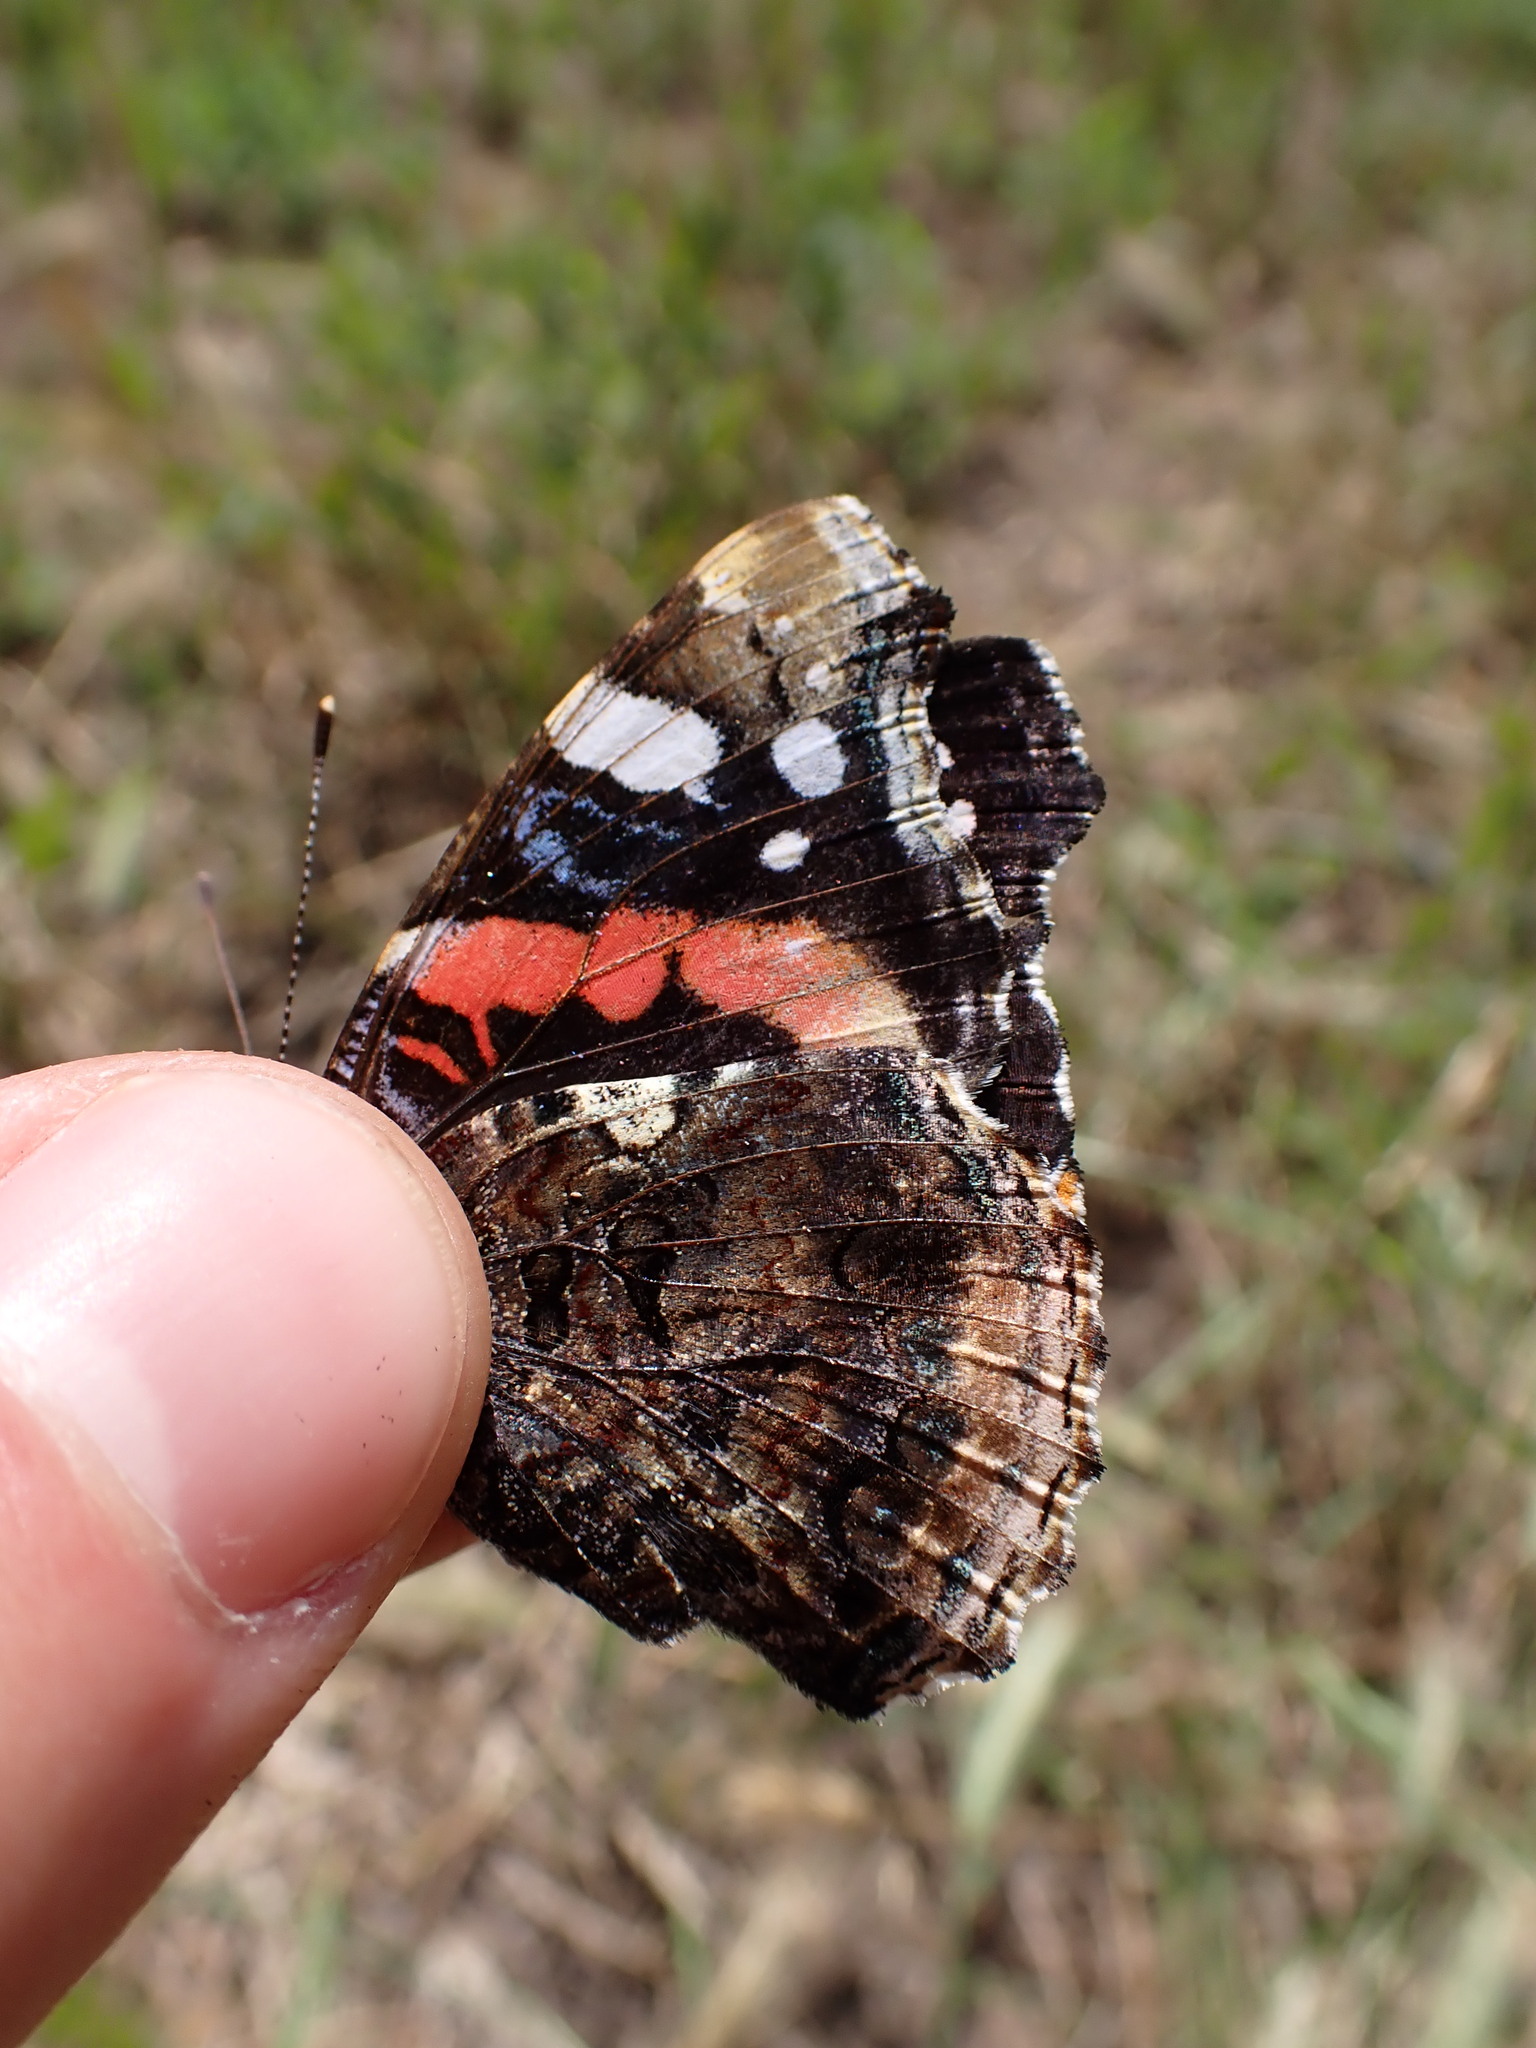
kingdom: Animalia
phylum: Arthropoda
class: Insecta
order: Lepidoptera
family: Nymphalidae
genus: Vanessa
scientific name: Vanessa atalanta
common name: Red admiral
